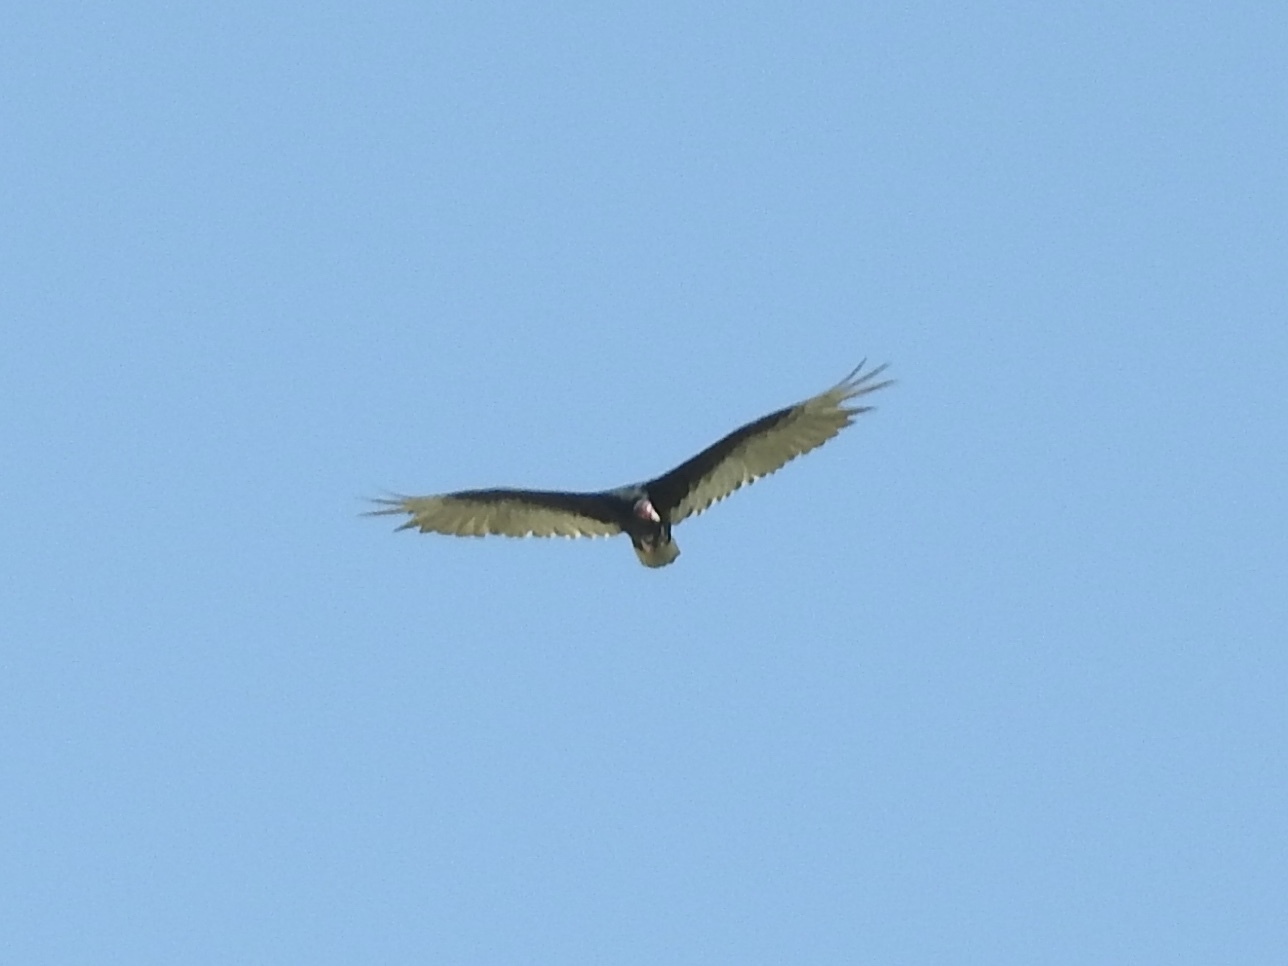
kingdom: Animalia
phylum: Chordata
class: Aves
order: Accipitriformes
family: Cathartidae
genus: Cathartes
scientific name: Cathartes aura
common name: Turkey vulture
